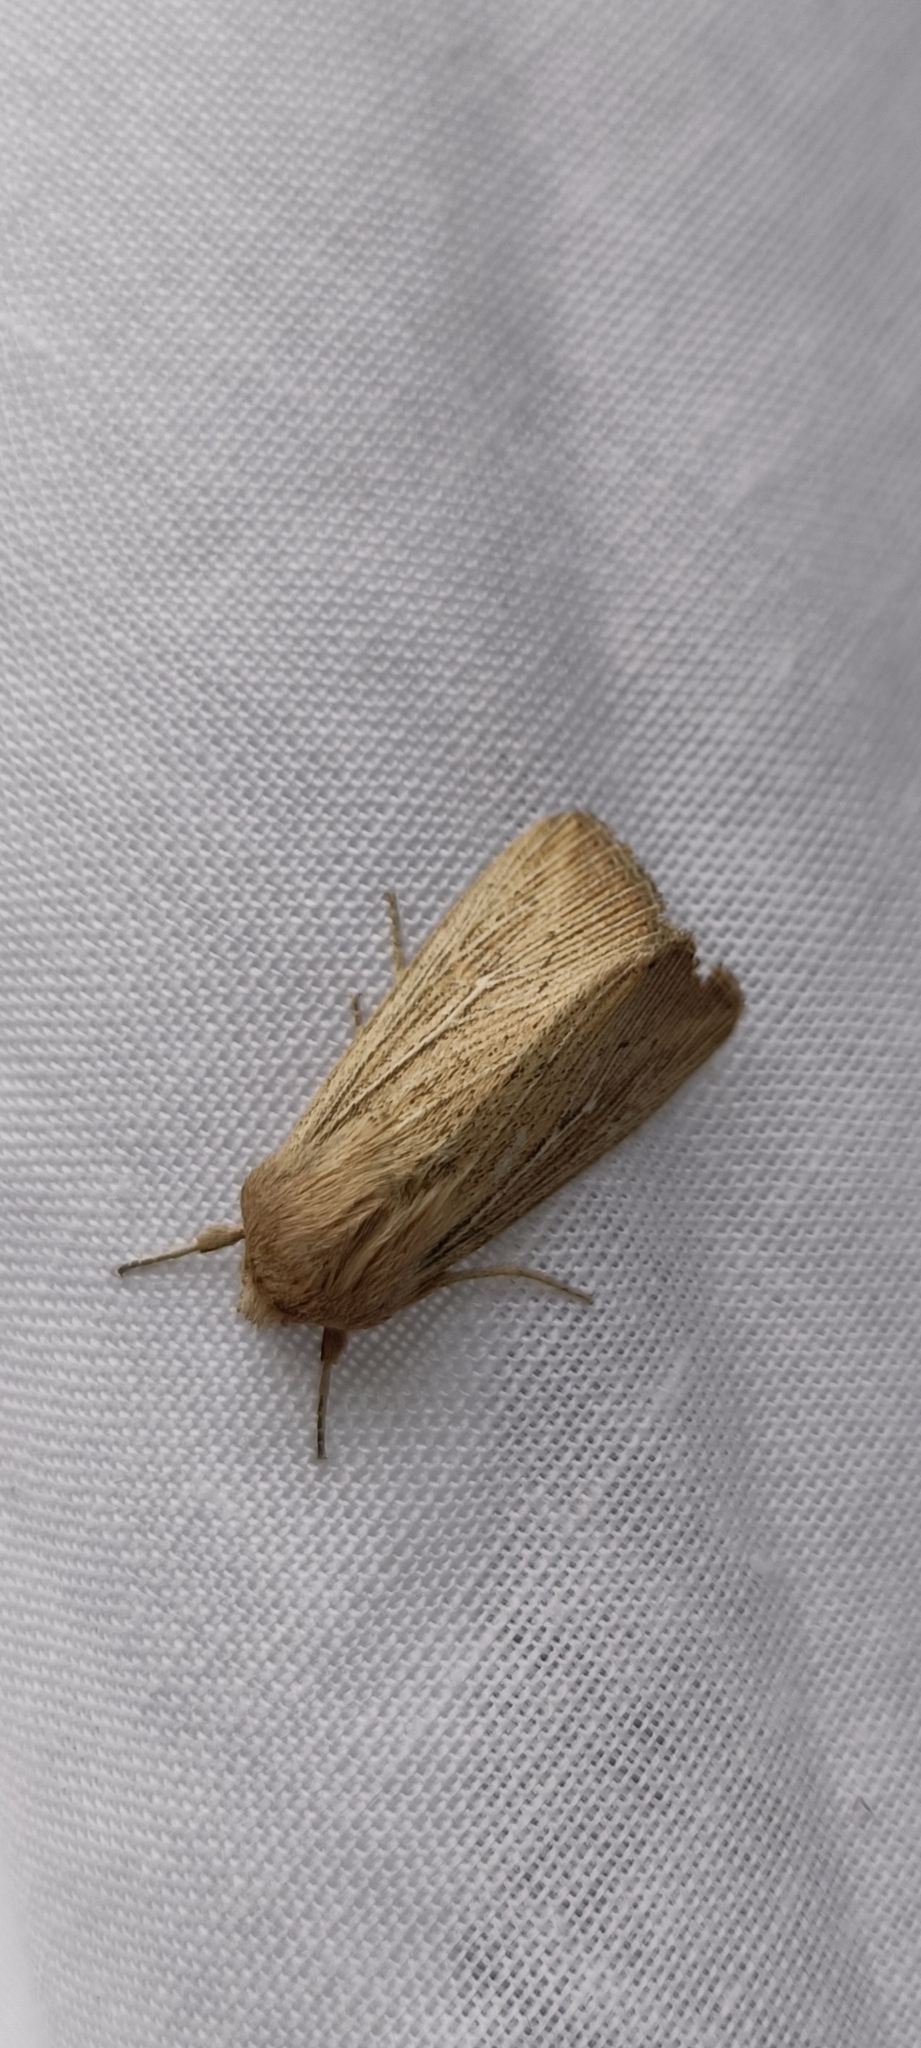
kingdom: Animalia
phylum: Arthropoda
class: Insecta
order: Lepidoptera
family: Noctuidae
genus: Leucania
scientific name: Leucania obsoleta
